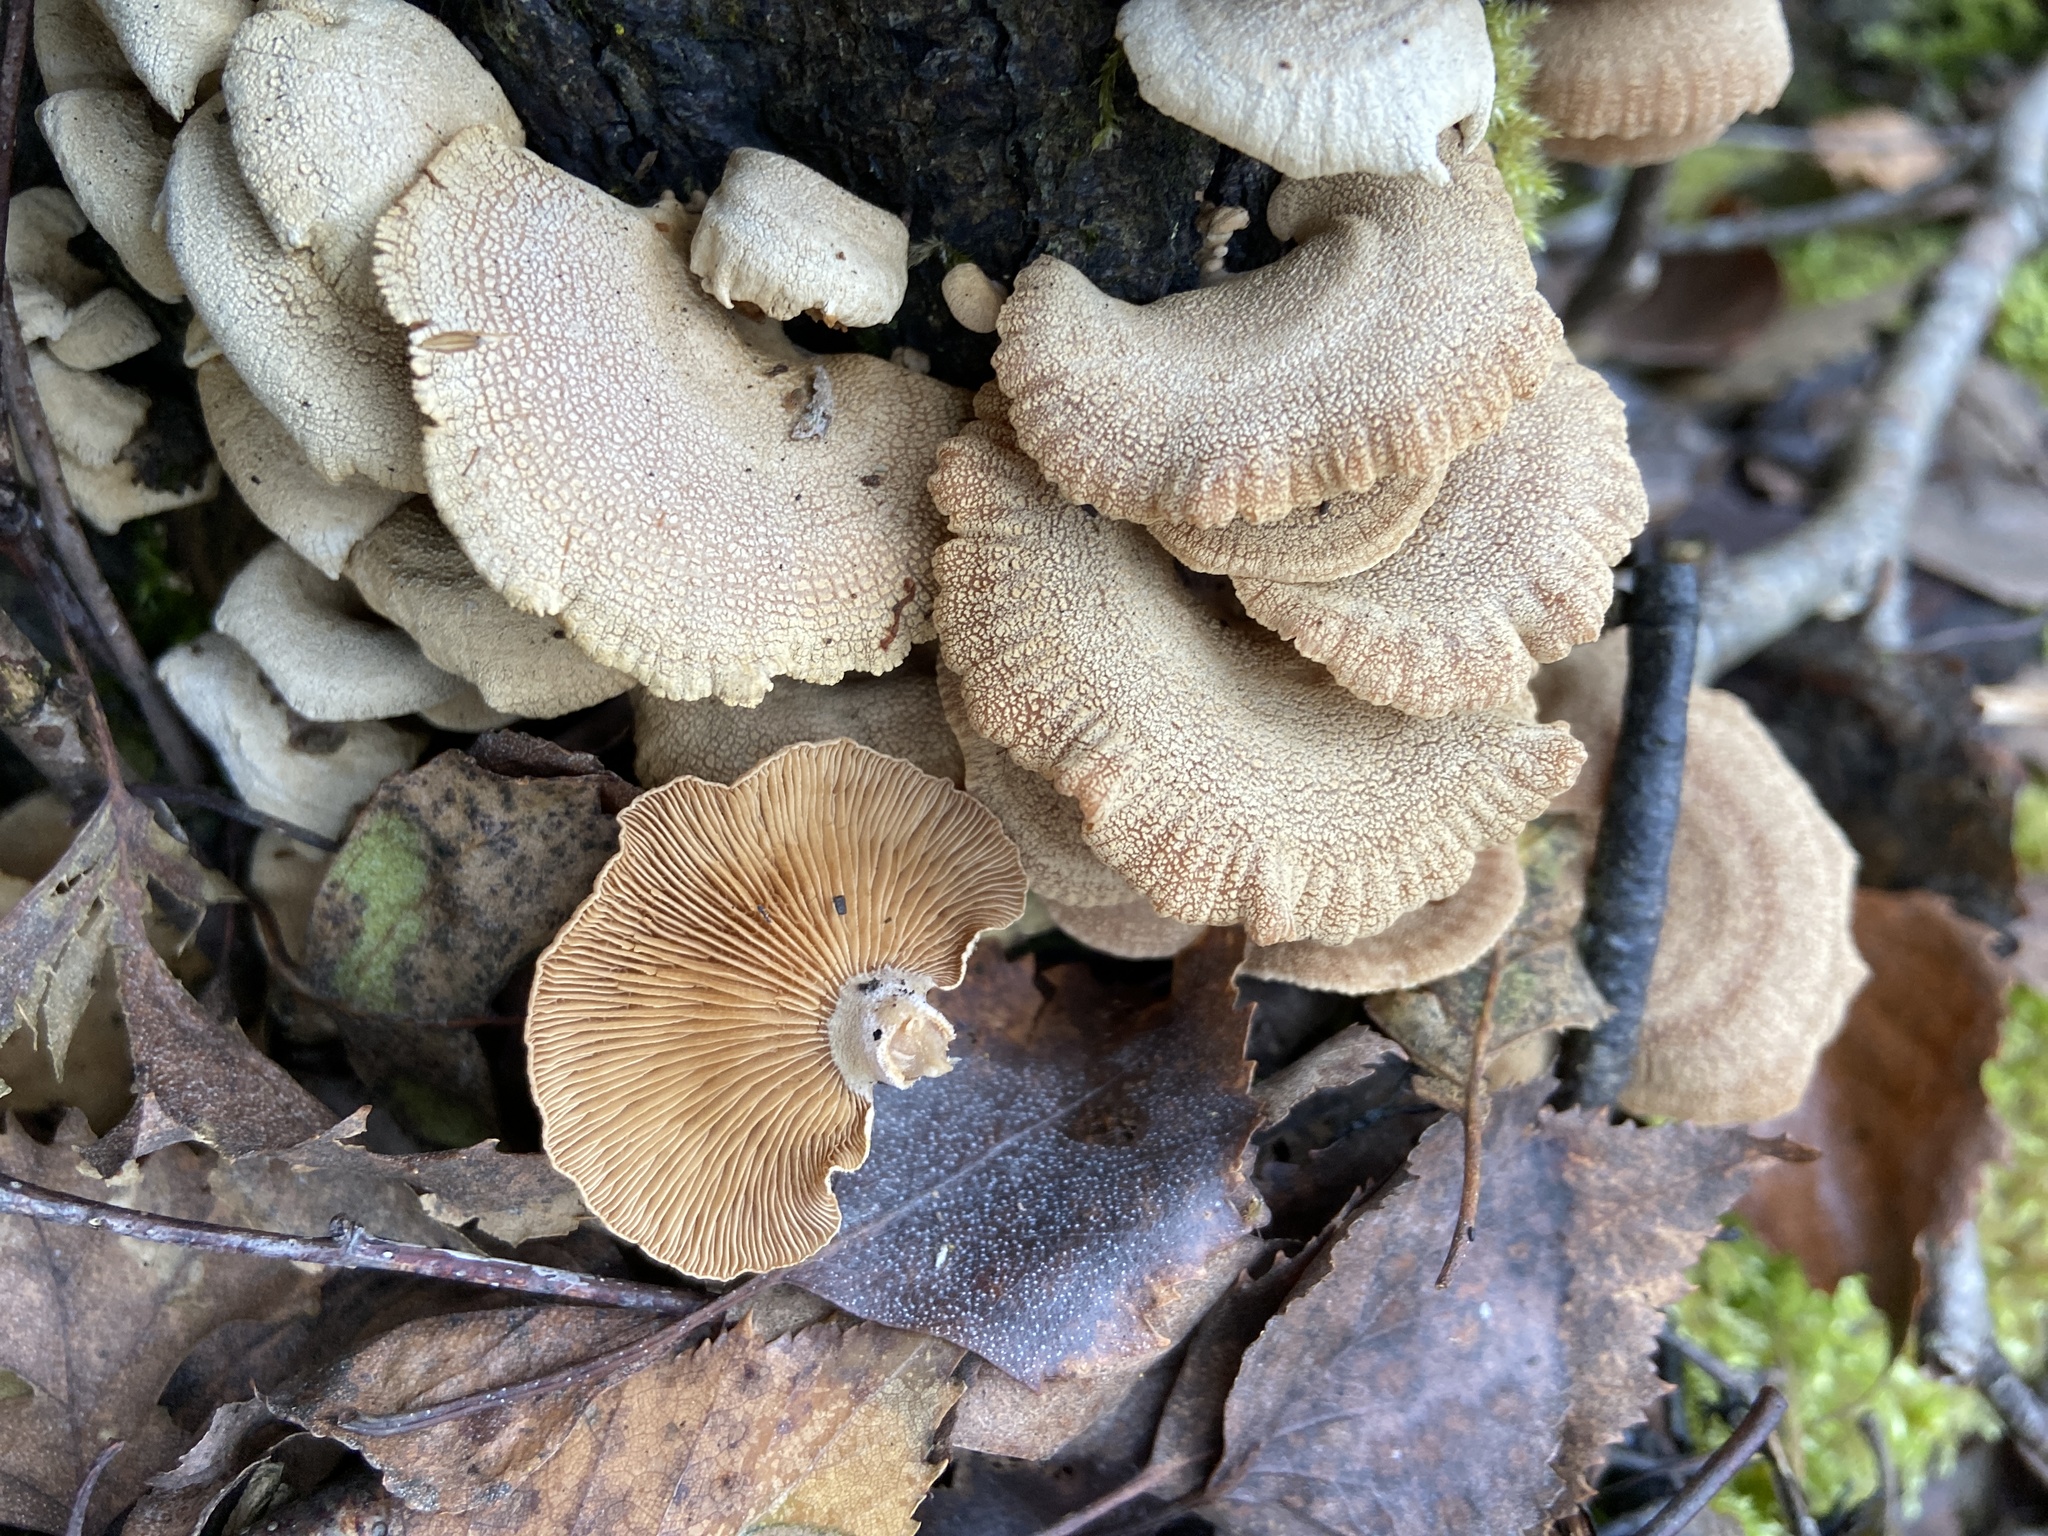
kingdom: Fungi
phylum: Basidiomycota
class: Agaricomycetes
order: Agaricales
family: Mycenaceae
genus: Panellus
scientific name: Panellus stipticus
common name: Bitter oysterling
